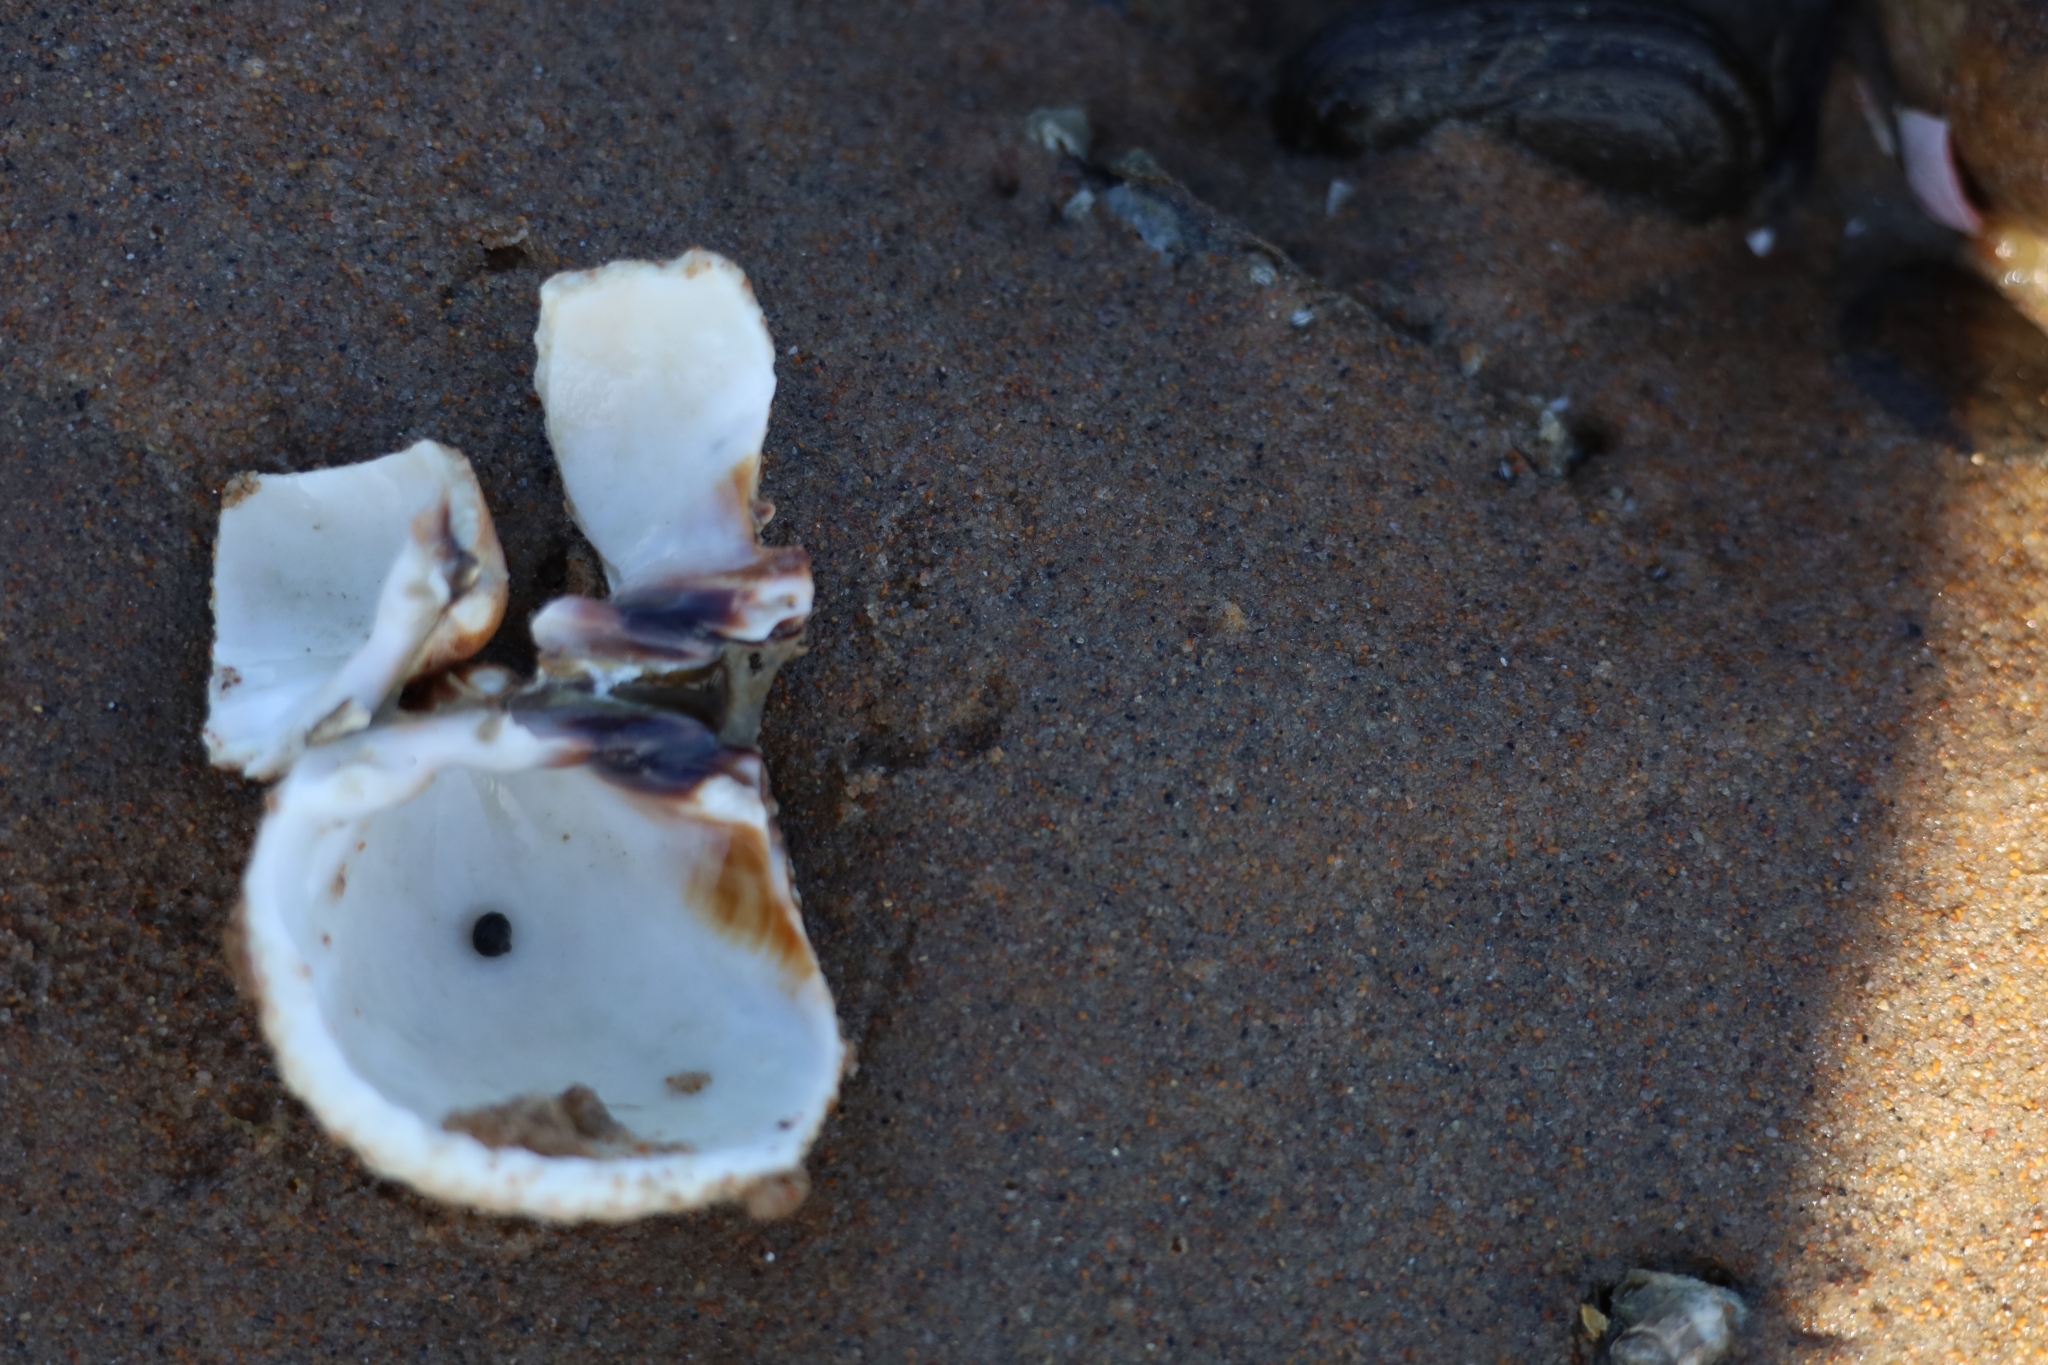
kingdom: Animalia
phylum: Mollusca
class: Bivalvia
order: Cardiida
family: Cardiidae
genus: Cerastoderma
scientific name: Cerastoderma edule
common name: Common cockle
